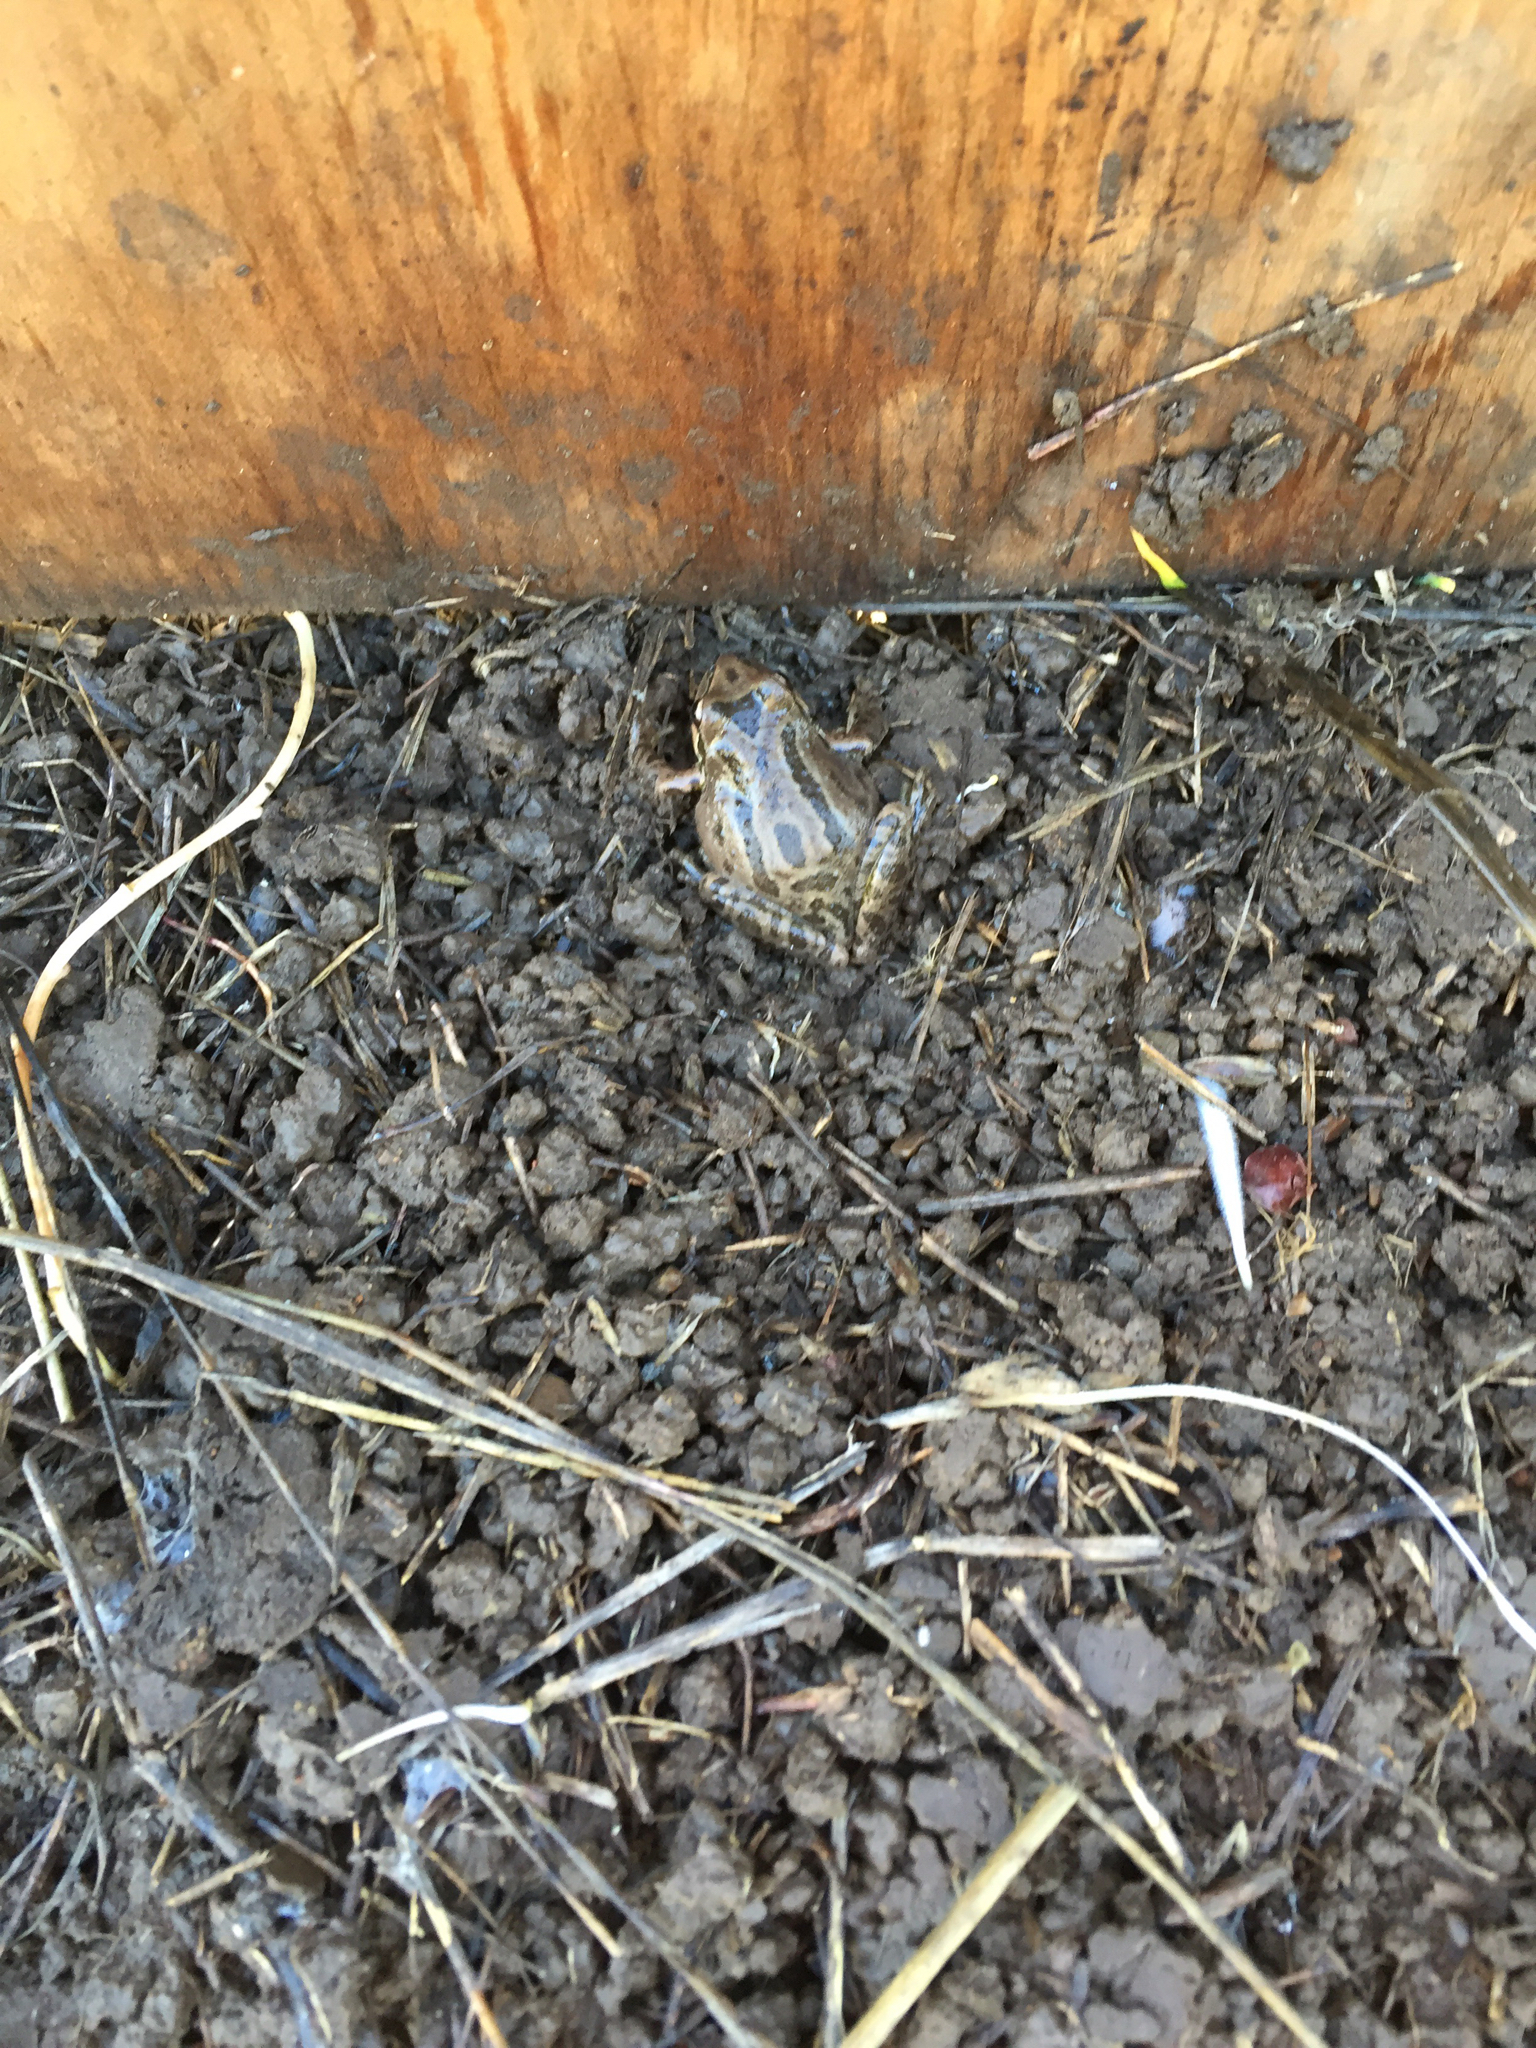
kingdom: Animalia
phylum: Chordata
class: Amphibia
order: Anura
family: Hylidae
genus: Pseudacris
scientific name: Pseudacris regilla
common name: Pacific chorus frog
